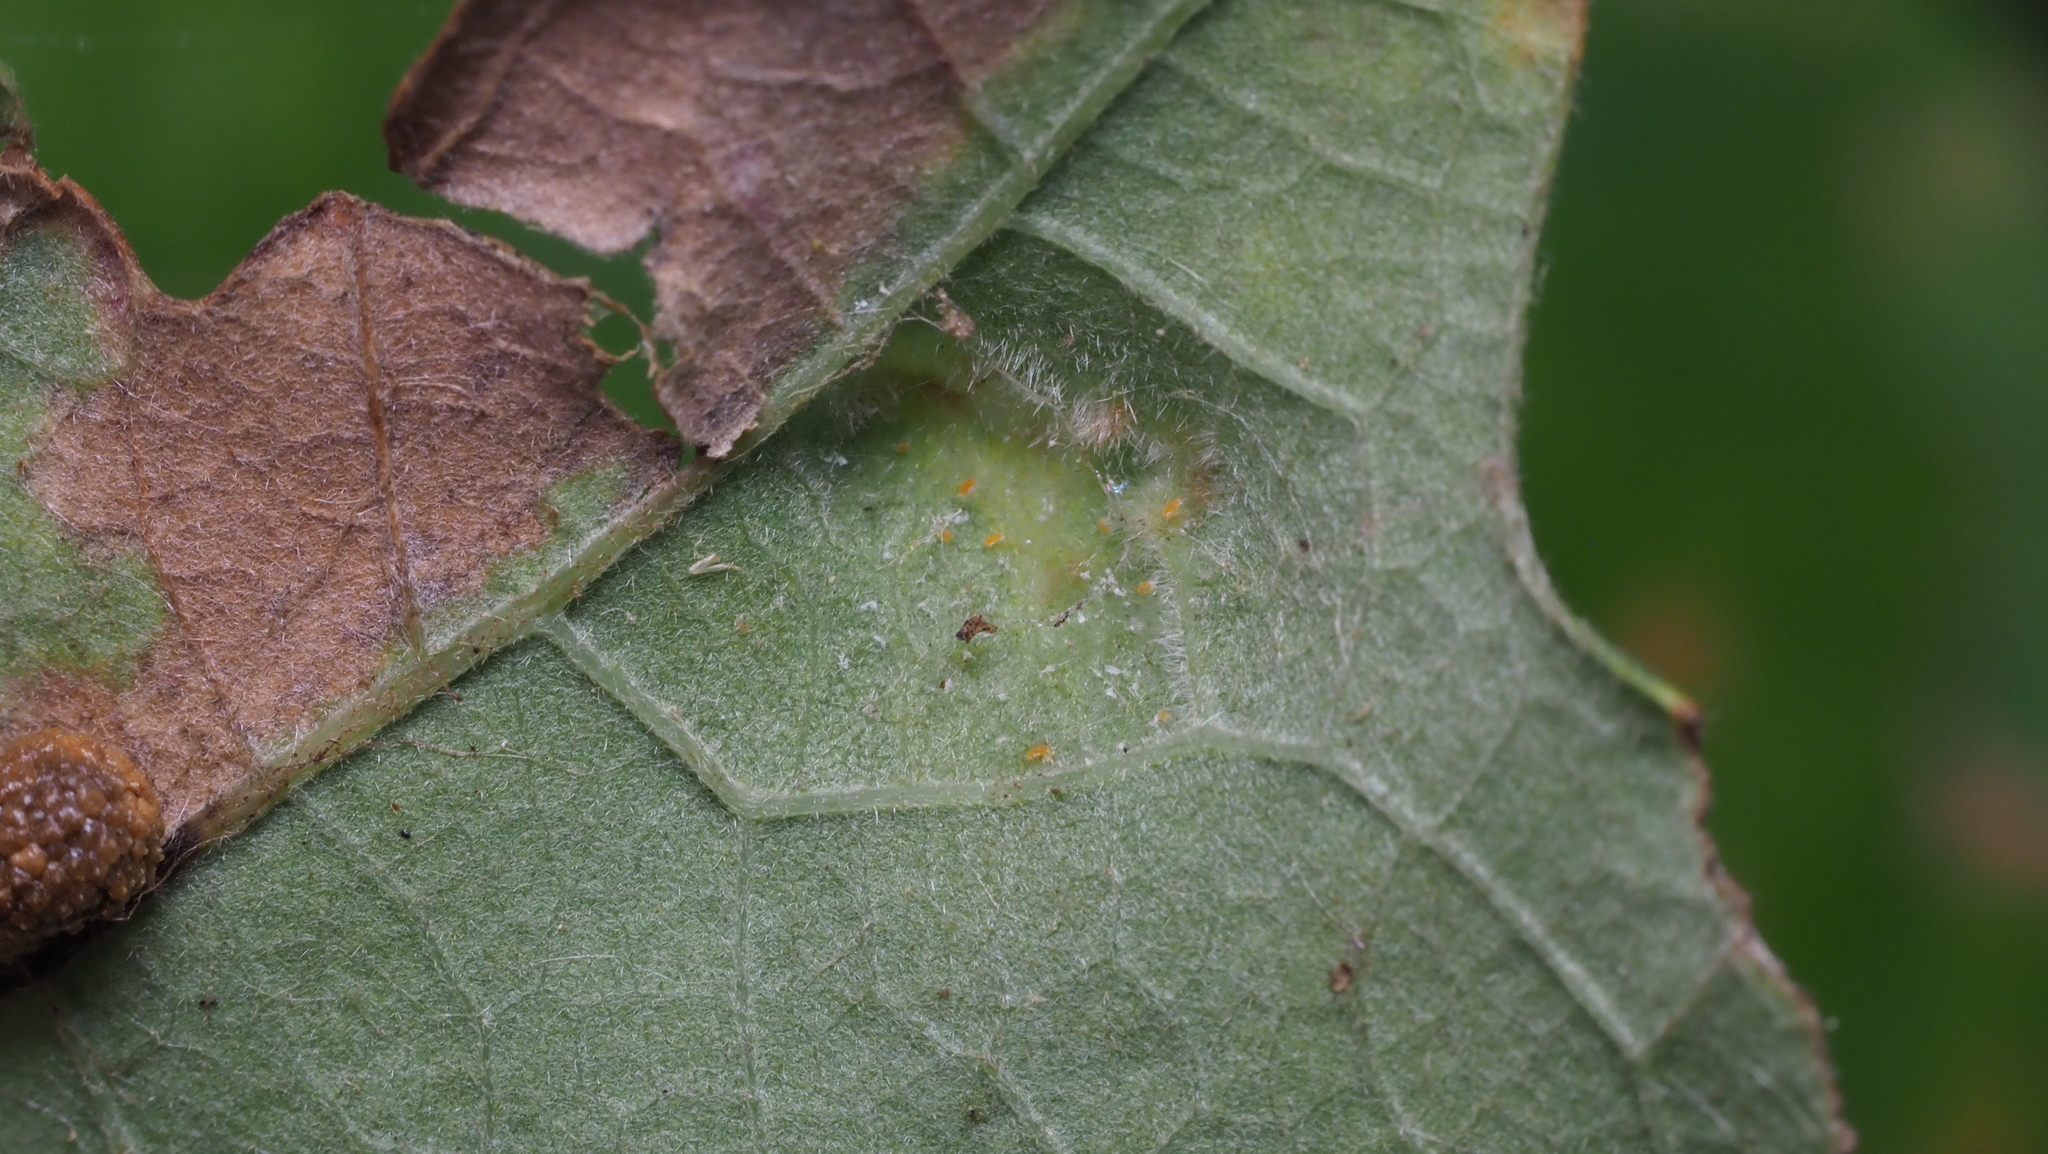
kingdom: Animalia
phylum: Arthropoda
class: Arachnida
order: Trombidiformes
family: Eriophyidae
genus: Aceria
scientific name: Aceria quercina
